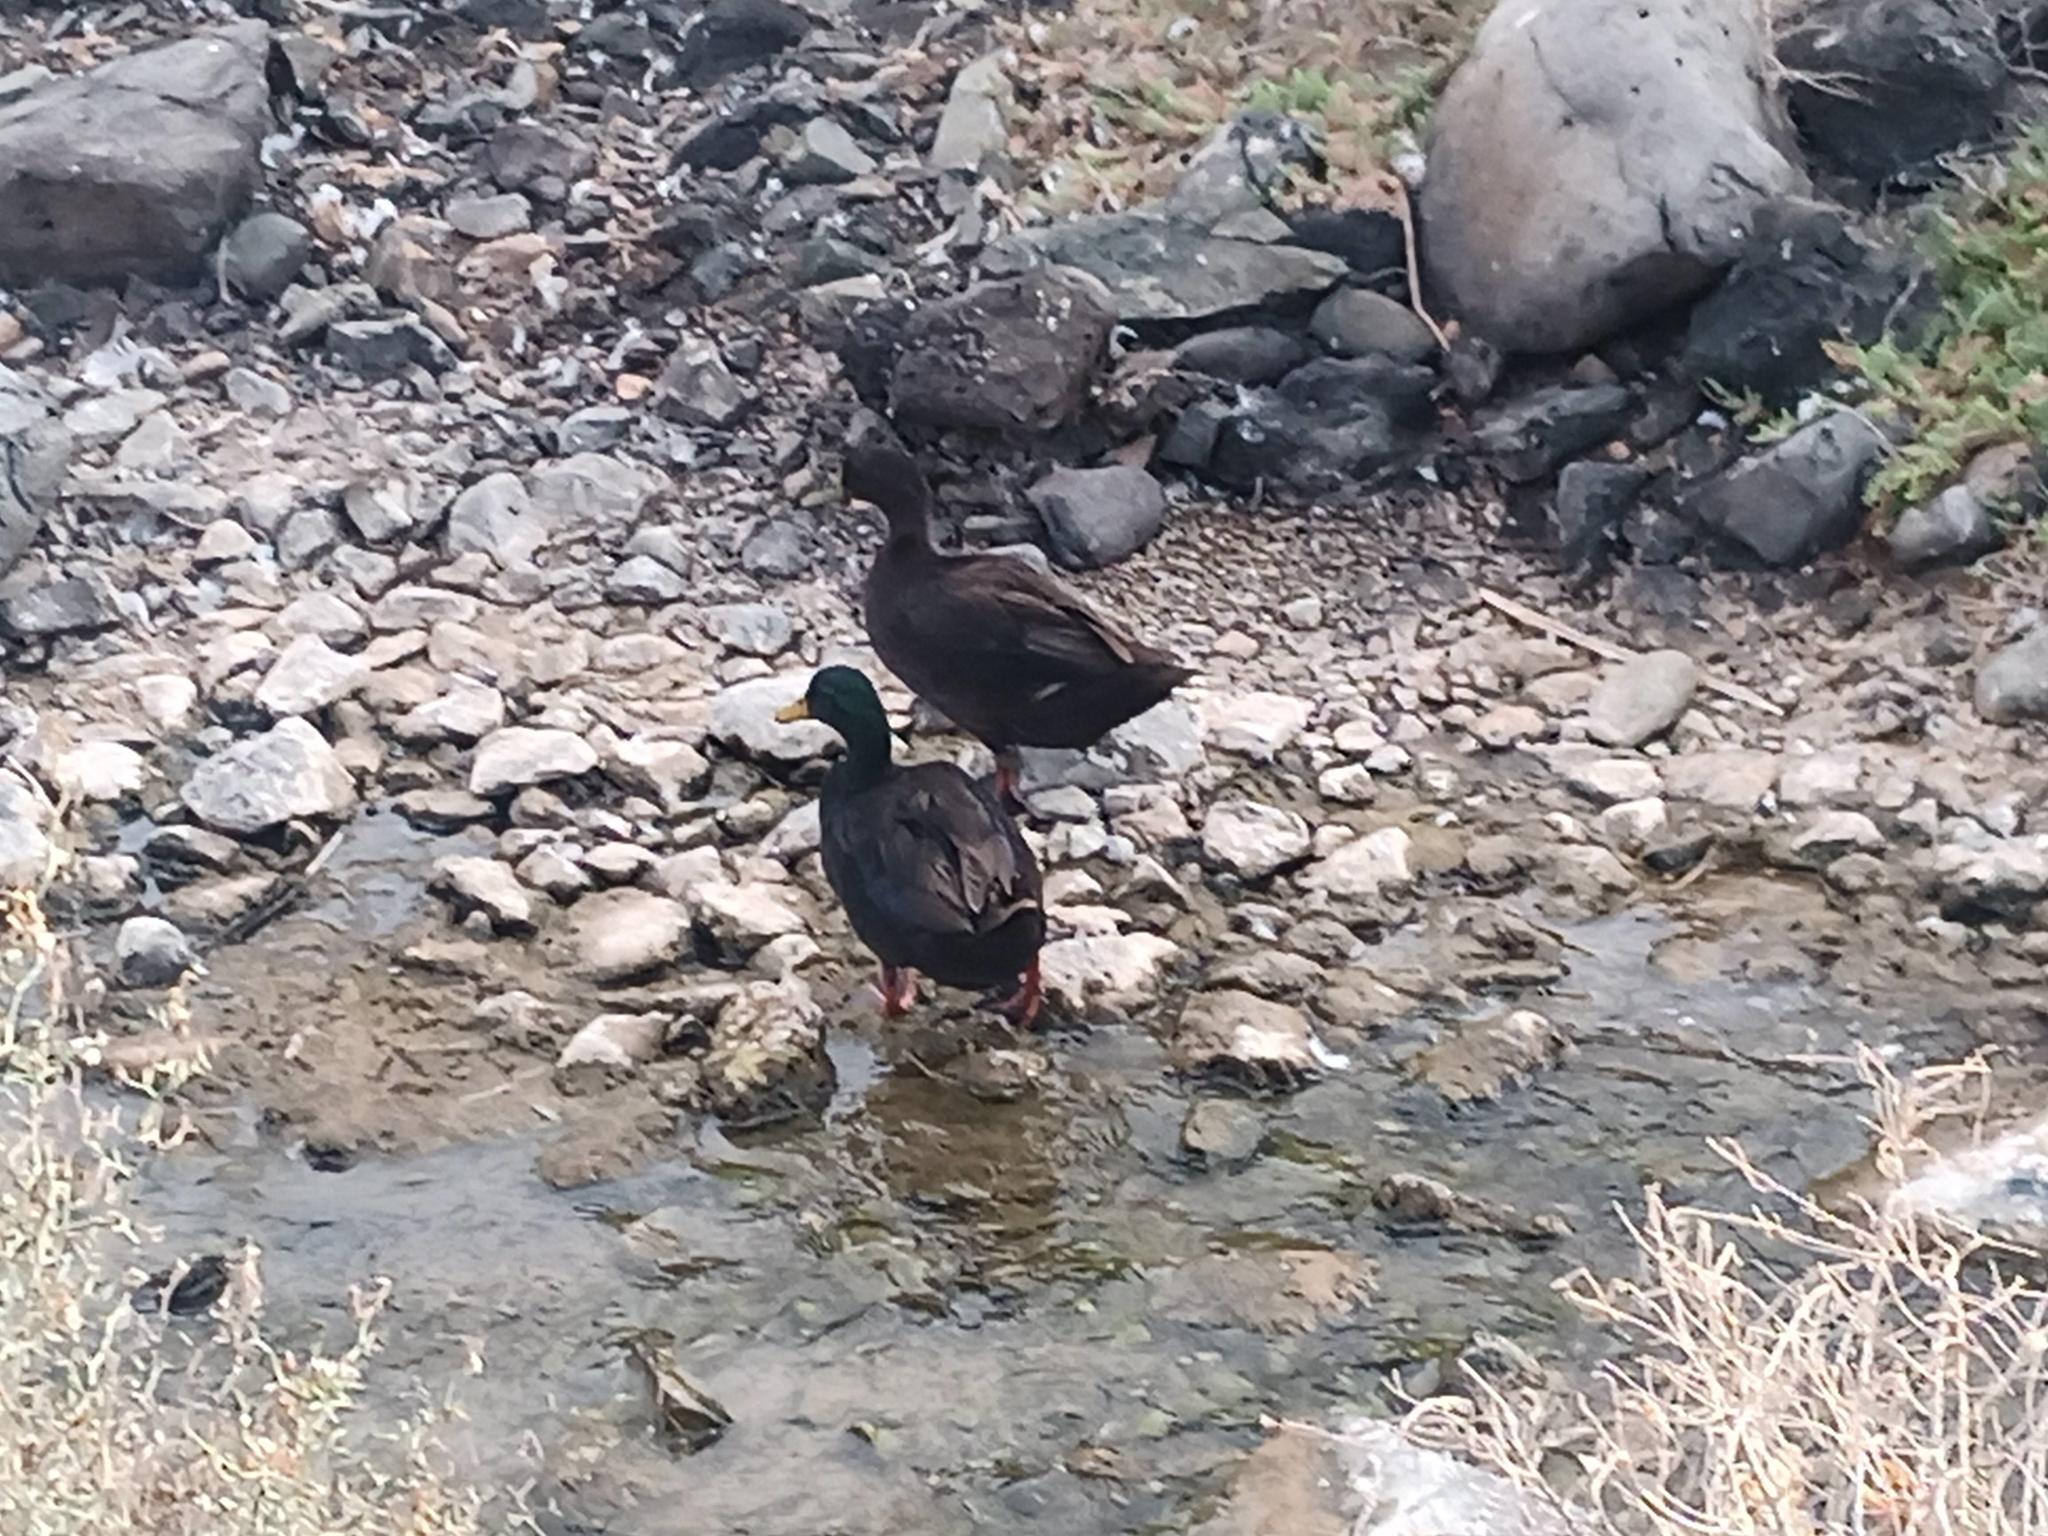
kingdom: Animalia
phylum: Chordata
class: Aves
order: Anseriformes
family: Anatidae
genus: Anas
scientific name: Anas platyrhynchos
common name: Mallard
